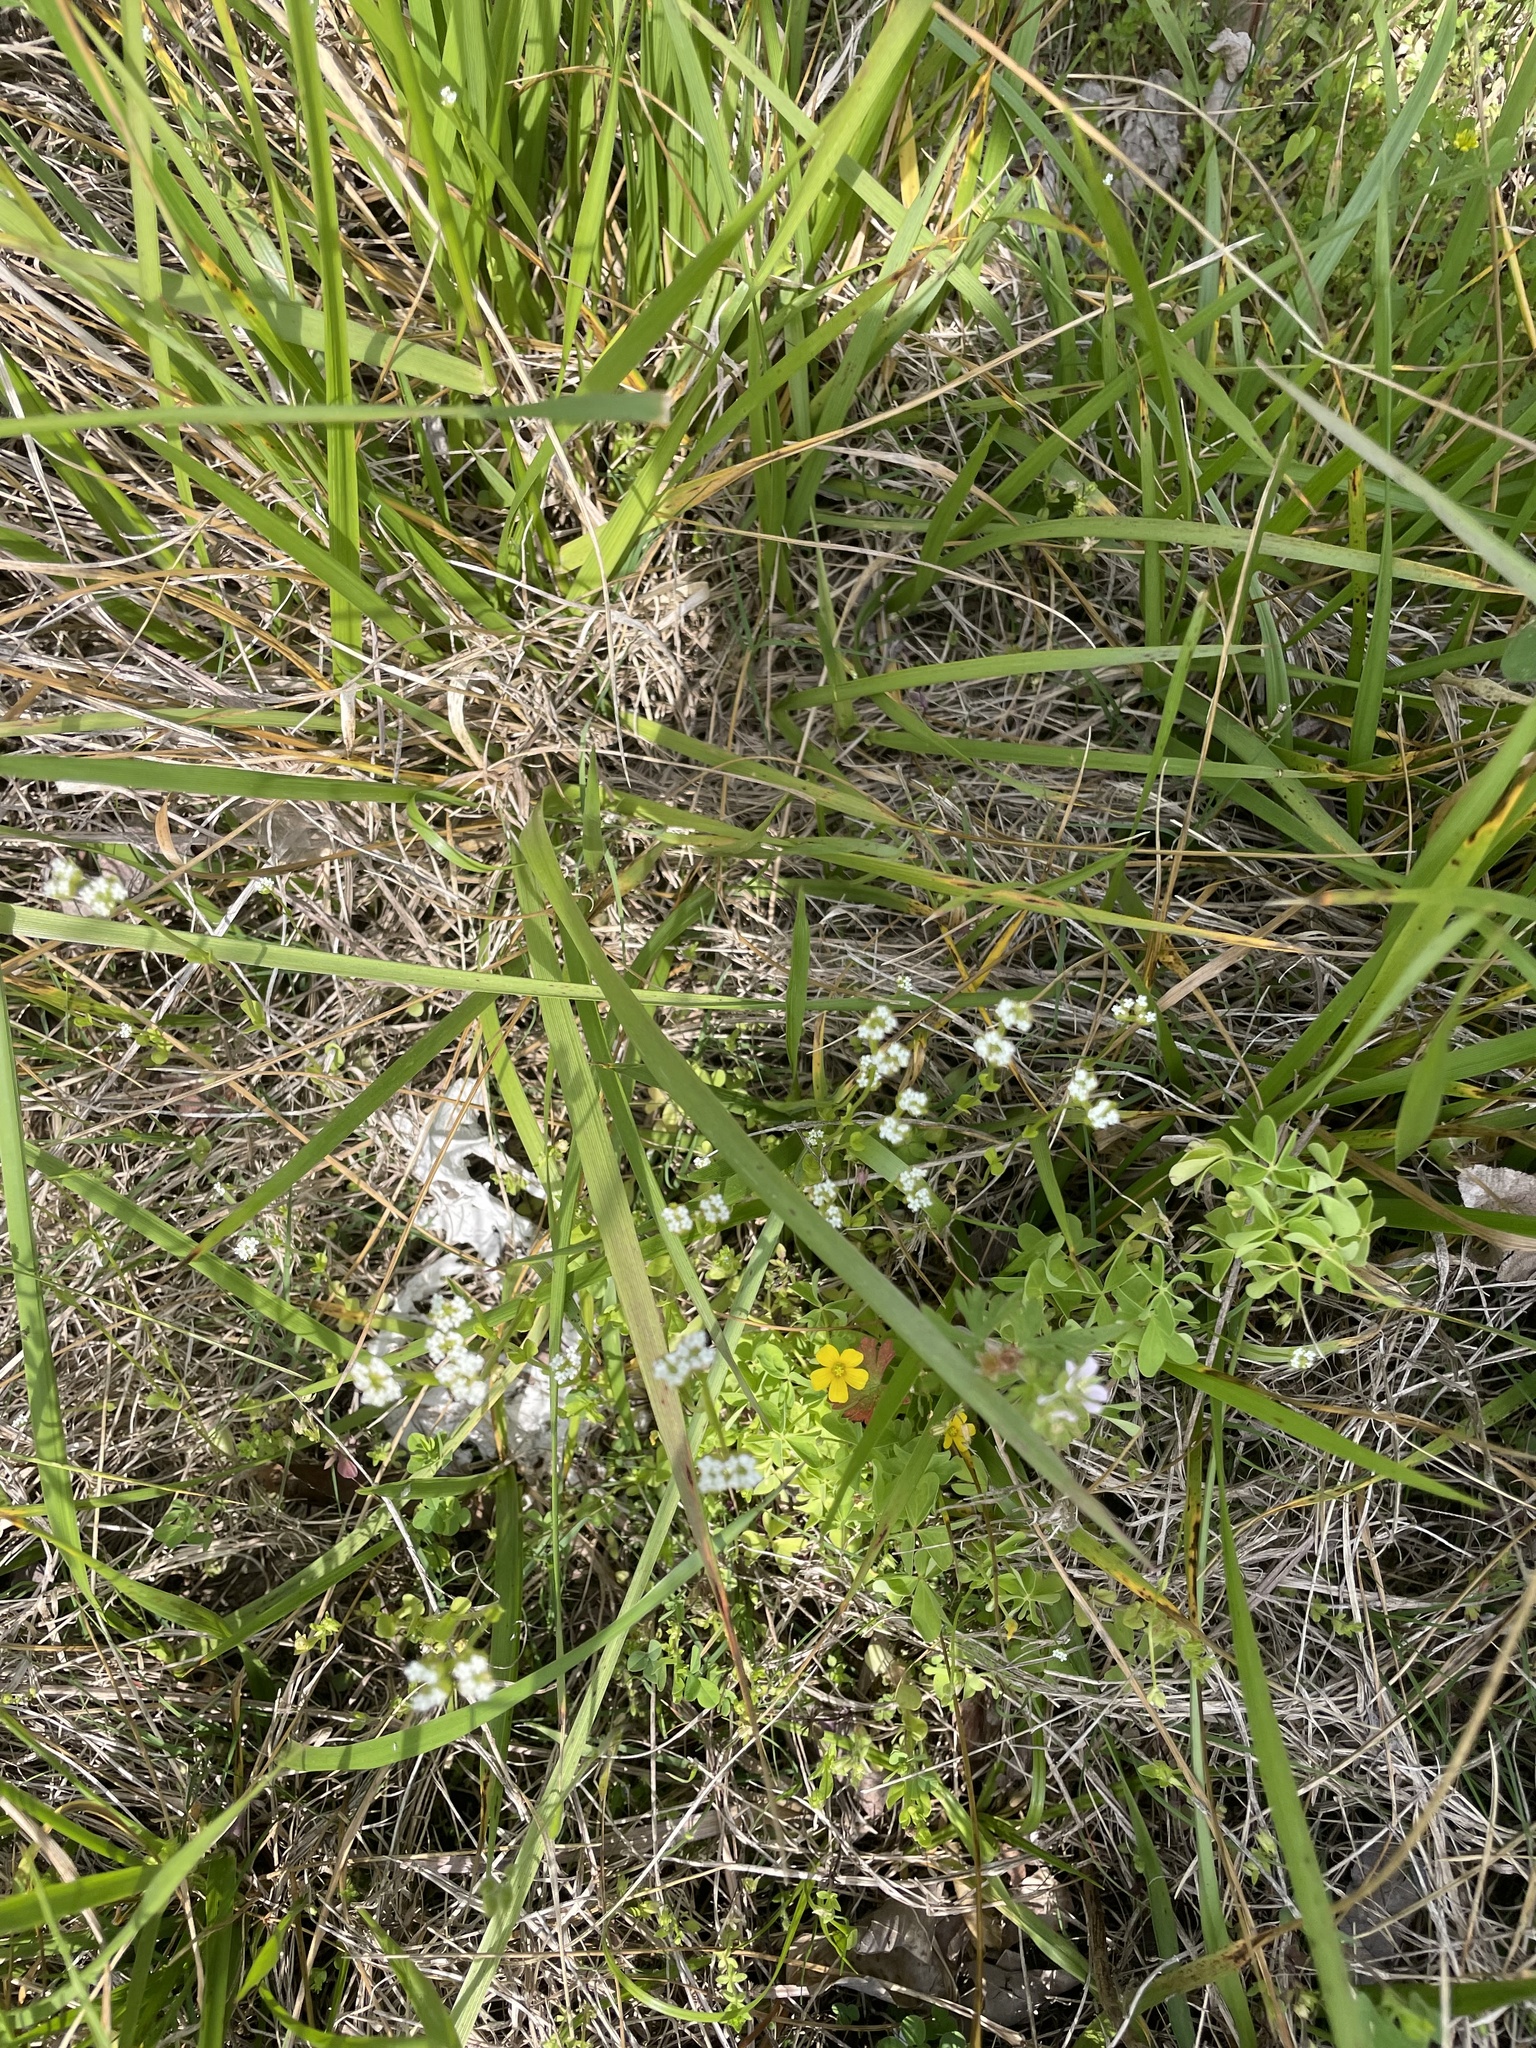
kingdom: Plantae
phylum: Tracheophyta
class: Magnoliopsida
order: Dipsacales
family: Caprifoliaceae
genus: Valerianella
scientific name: Valerianella radiata
